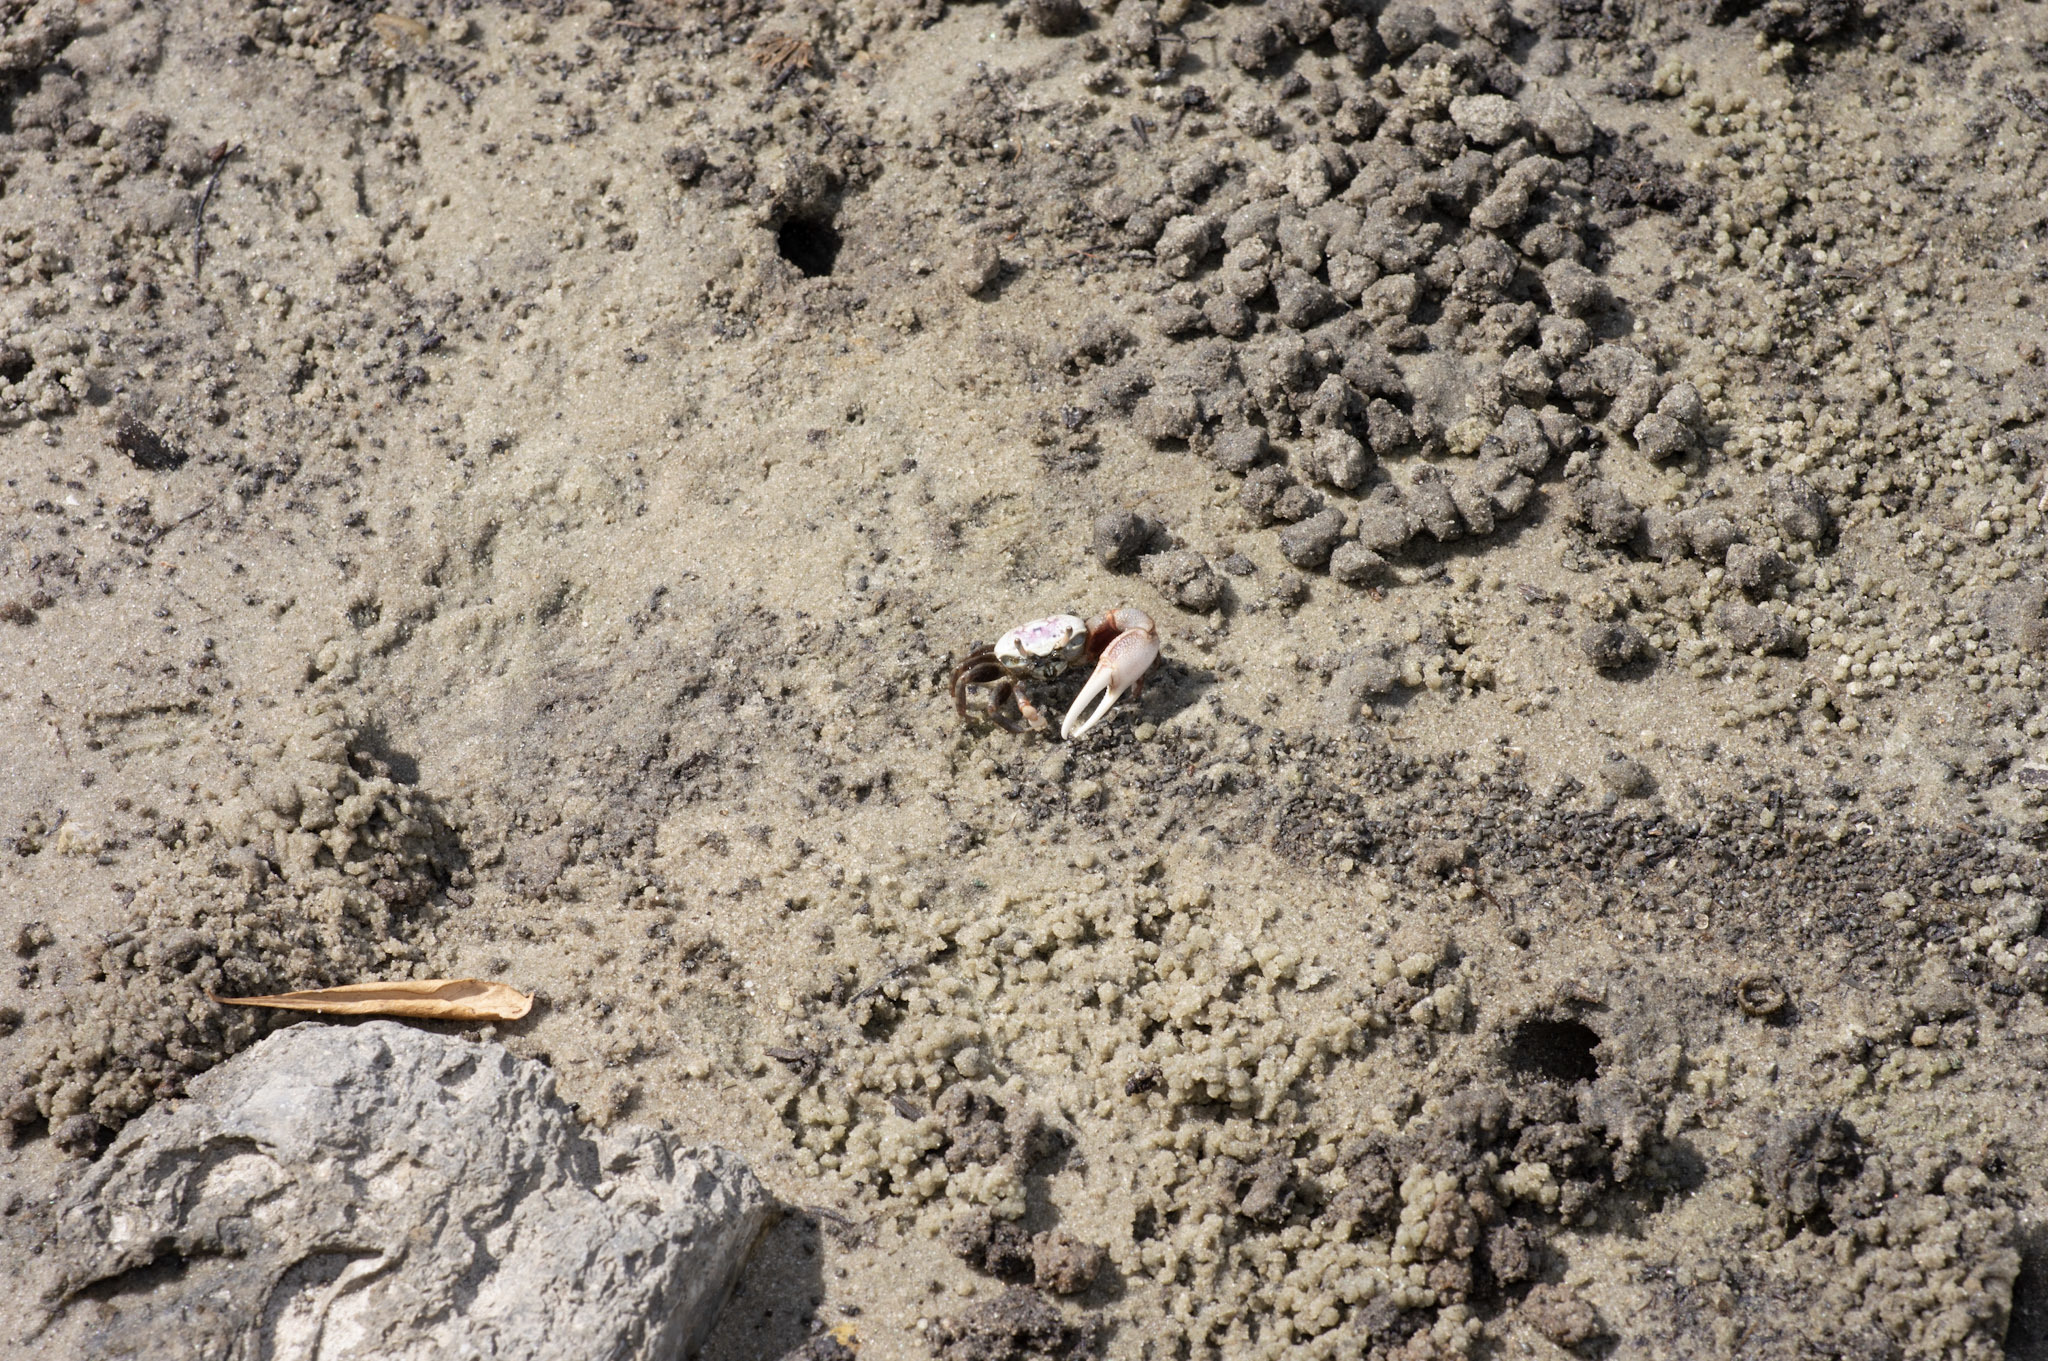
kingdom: Animalia
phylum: Arthropoda
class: Malacostraca
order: Decapoda
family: Ocypodidae
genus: Leptuca
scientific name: Leptuca pugilator
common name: Atlantic sand fiddler crab
